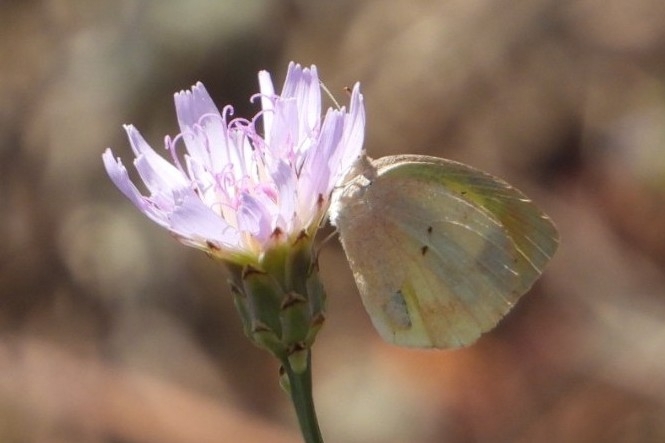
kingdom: Animalia
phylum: Arthropoda
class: Insecta
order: Lepidoptera
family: Pieridae
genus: Eurema
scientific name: Eurema daira
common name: Barred sulphur
